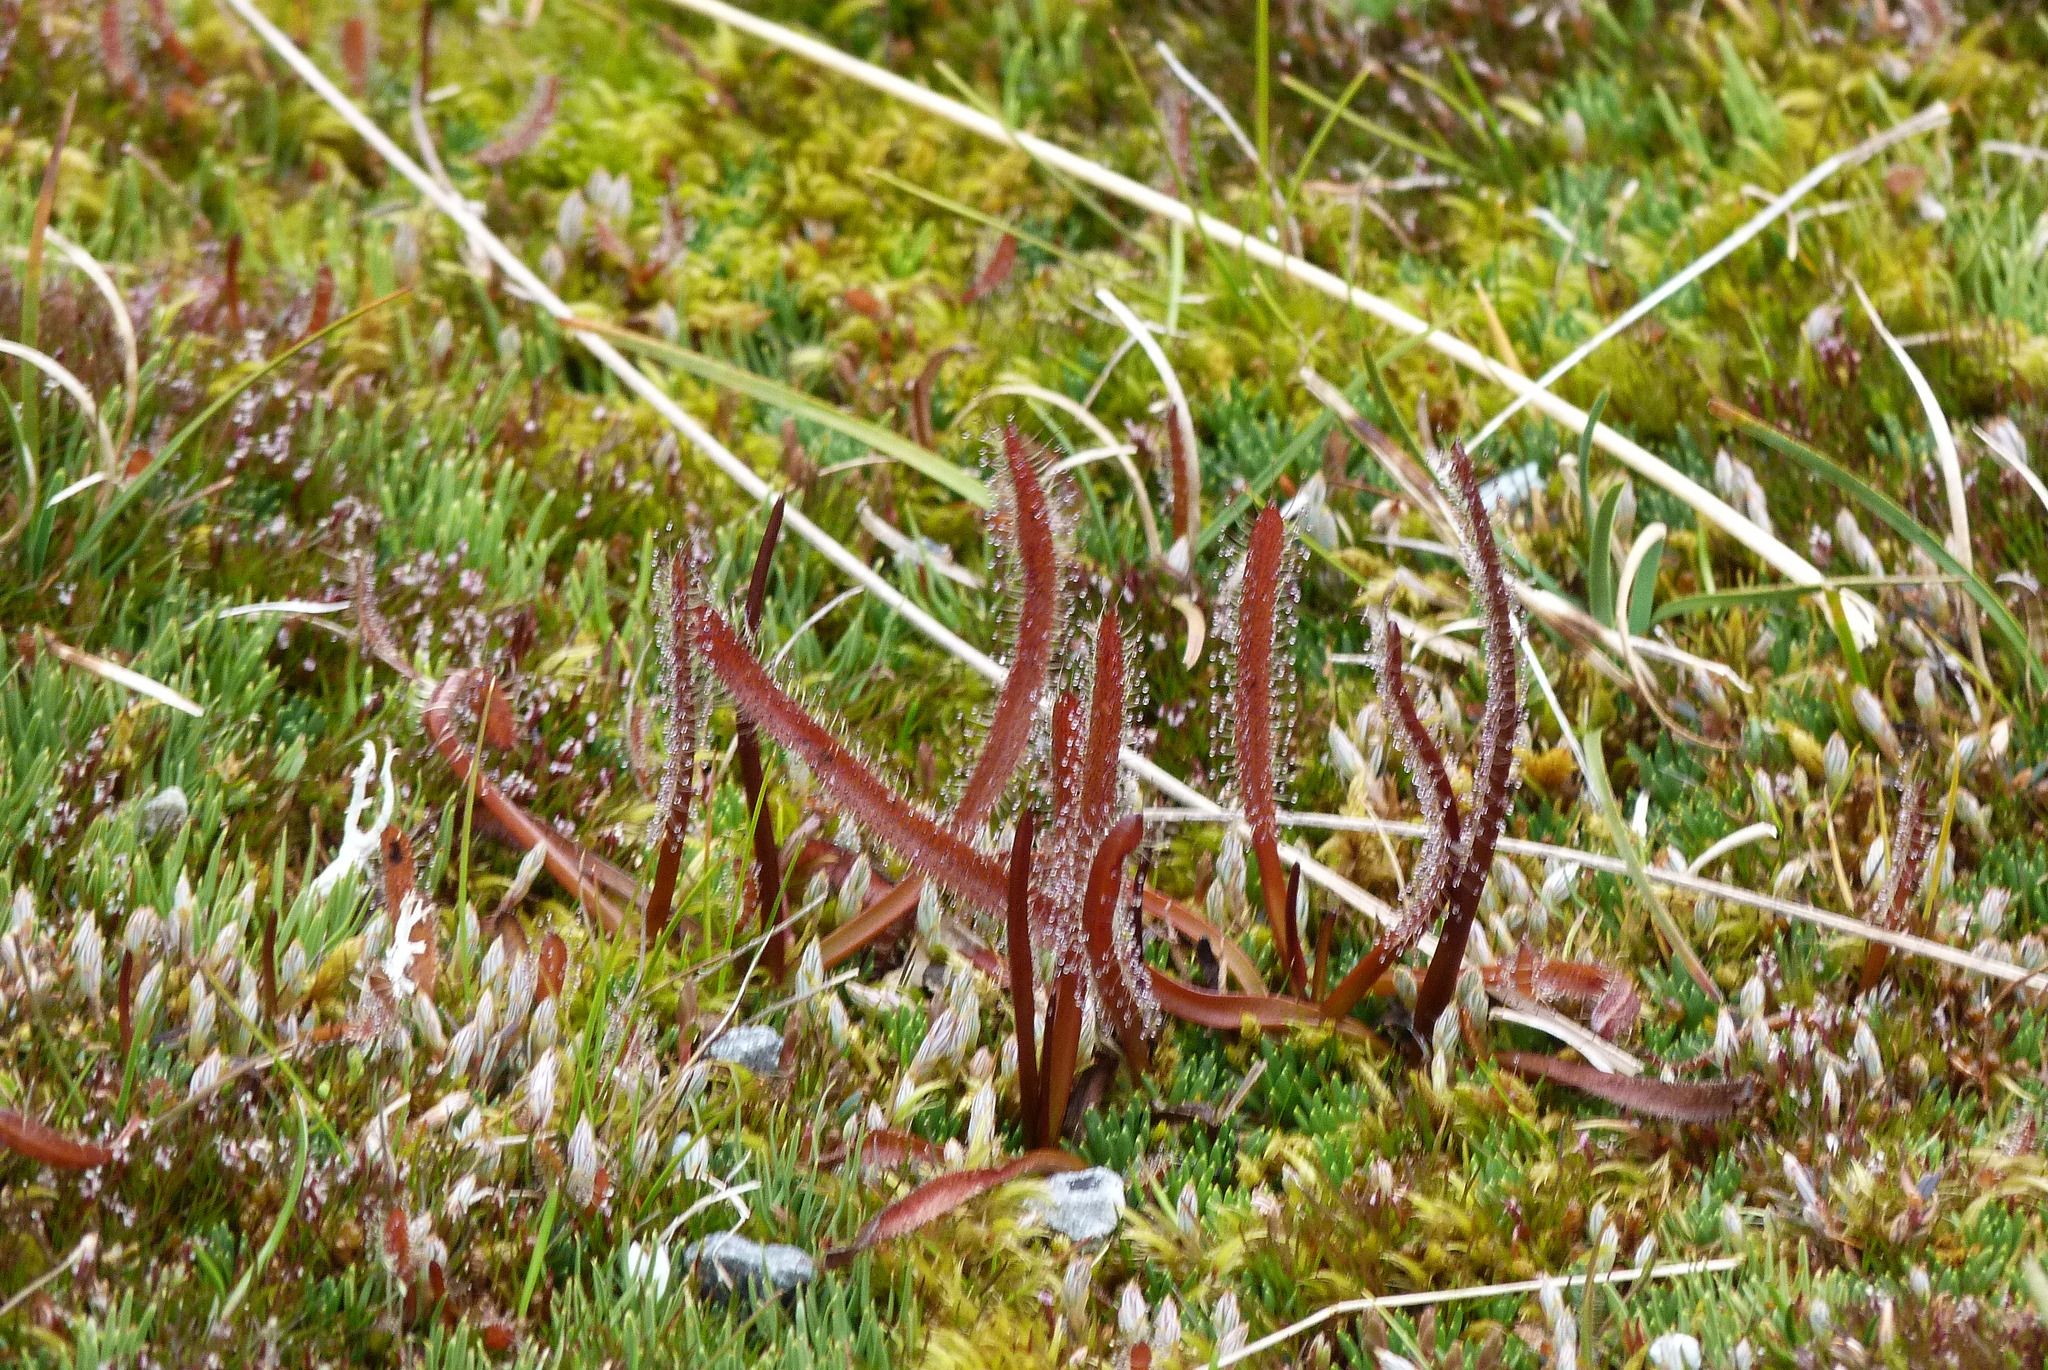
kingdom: Plantae
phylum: Tracheophyta
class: Magnoliopsida
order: Caryophyllales
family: Droseraceae
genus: Drosera
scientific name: Drosera arcturi
